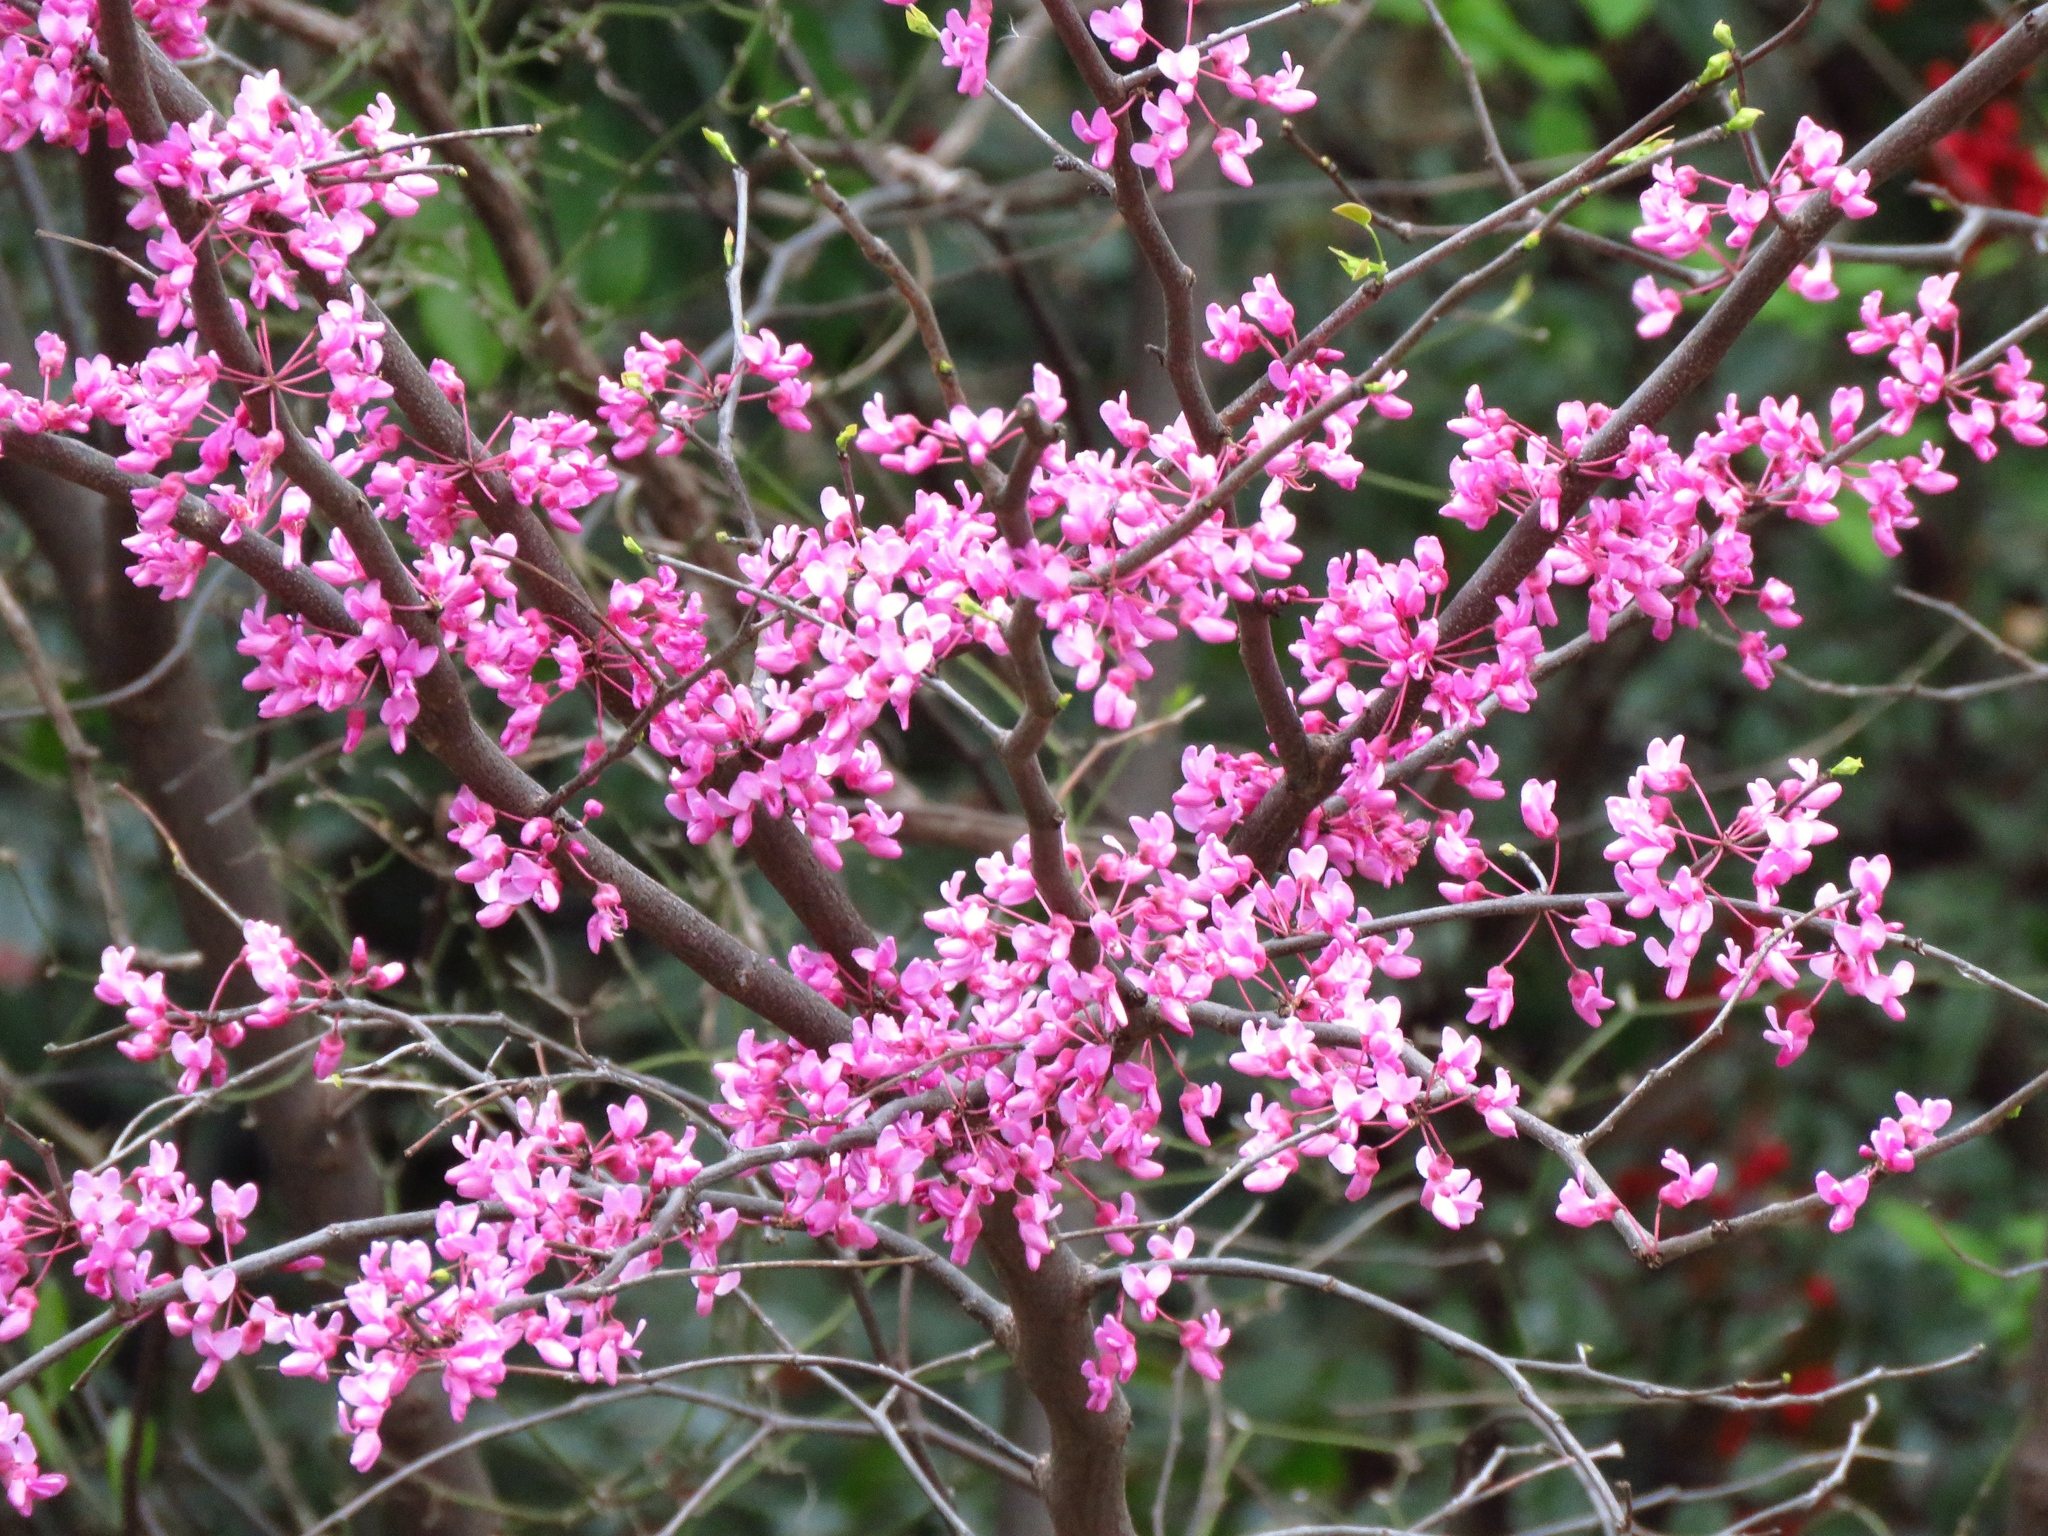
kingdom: Plantae
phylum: Tracheophyta
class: Magnoliopsida
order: Fabales
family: Fabaceae
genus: Cercis
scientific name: Cercis canadensis
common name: Eastern redbud
